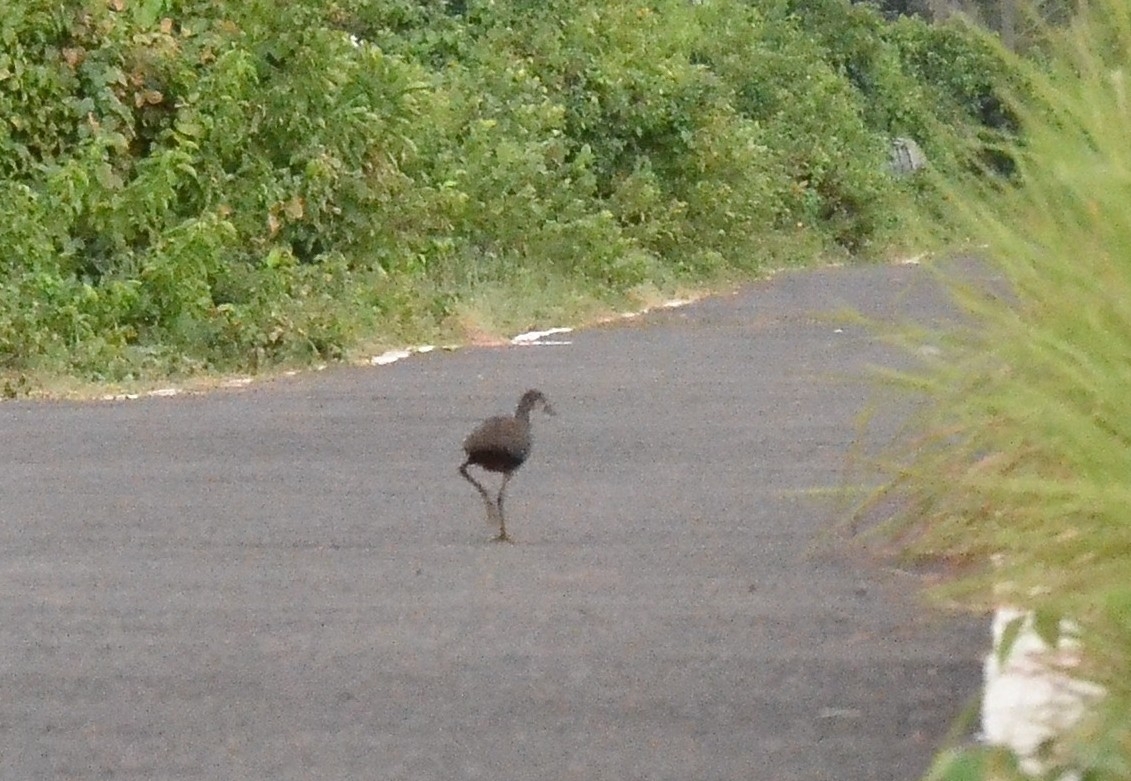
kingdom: Animalia
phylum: Chordata
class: Aves
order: Gruiformes
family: Rallidae
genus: Amaurornis
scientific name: Amaurornis phoenicurus
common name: White-breasted waterhen
